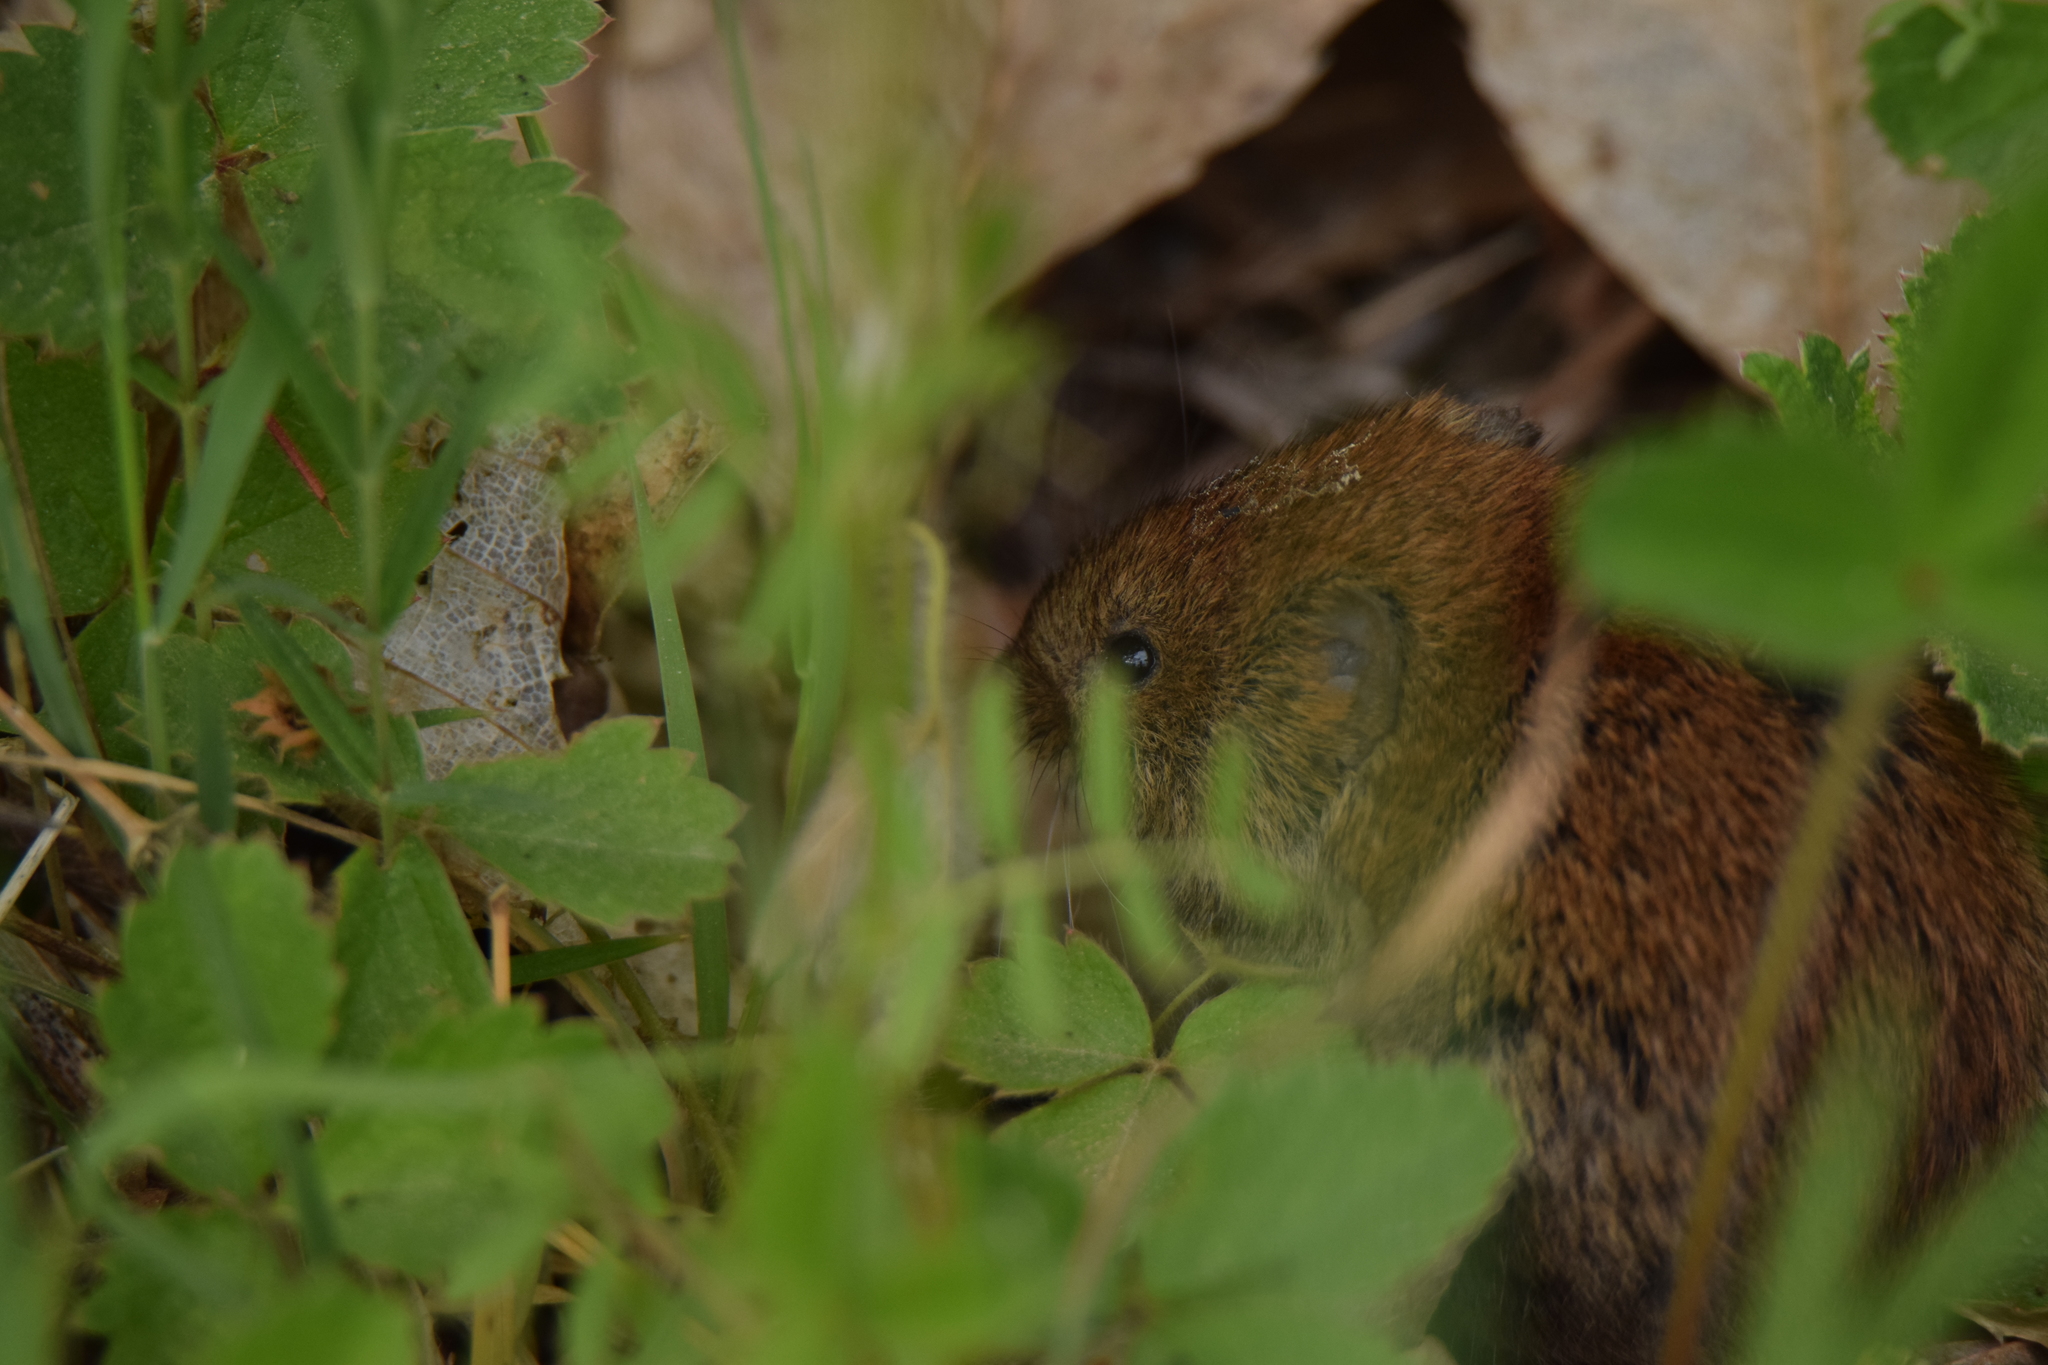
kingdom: Animalia
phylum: Chordata
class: Mammalia
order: Rodentia
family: Cricetidae
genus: Myodes
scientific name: Myodes glareolus
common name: Bank vole
